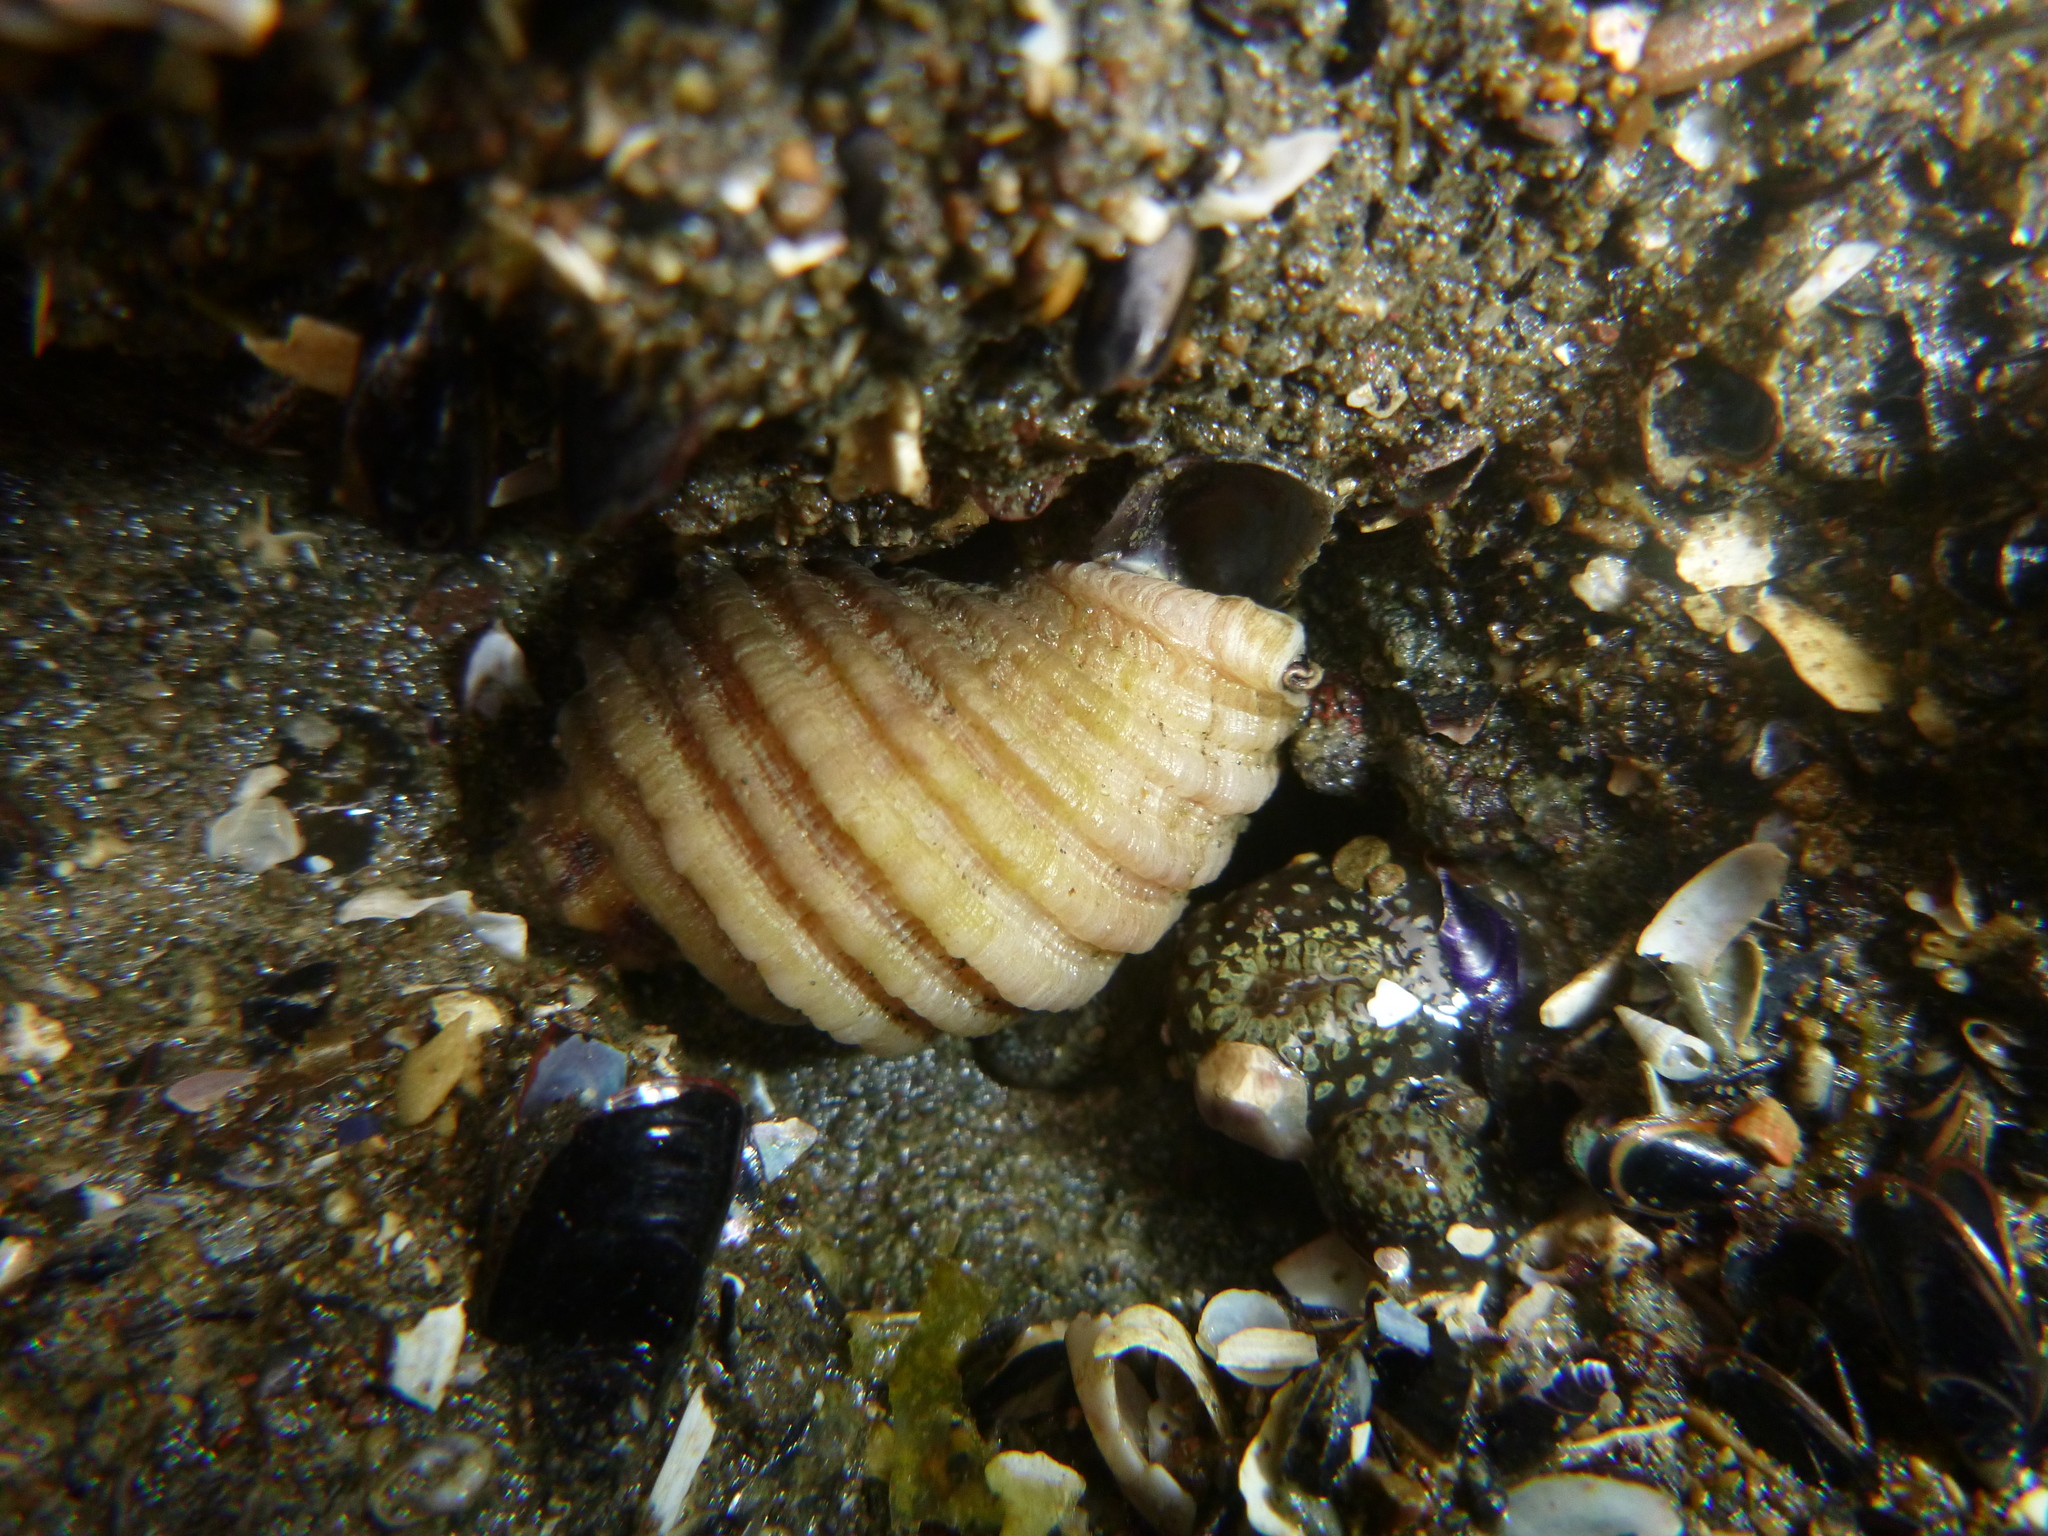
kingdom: Animalia
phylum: Mollusca
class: Gastropoda
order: Neogastropoda
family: Muricidae
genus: Dicathais
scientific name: Dicathais orbita
